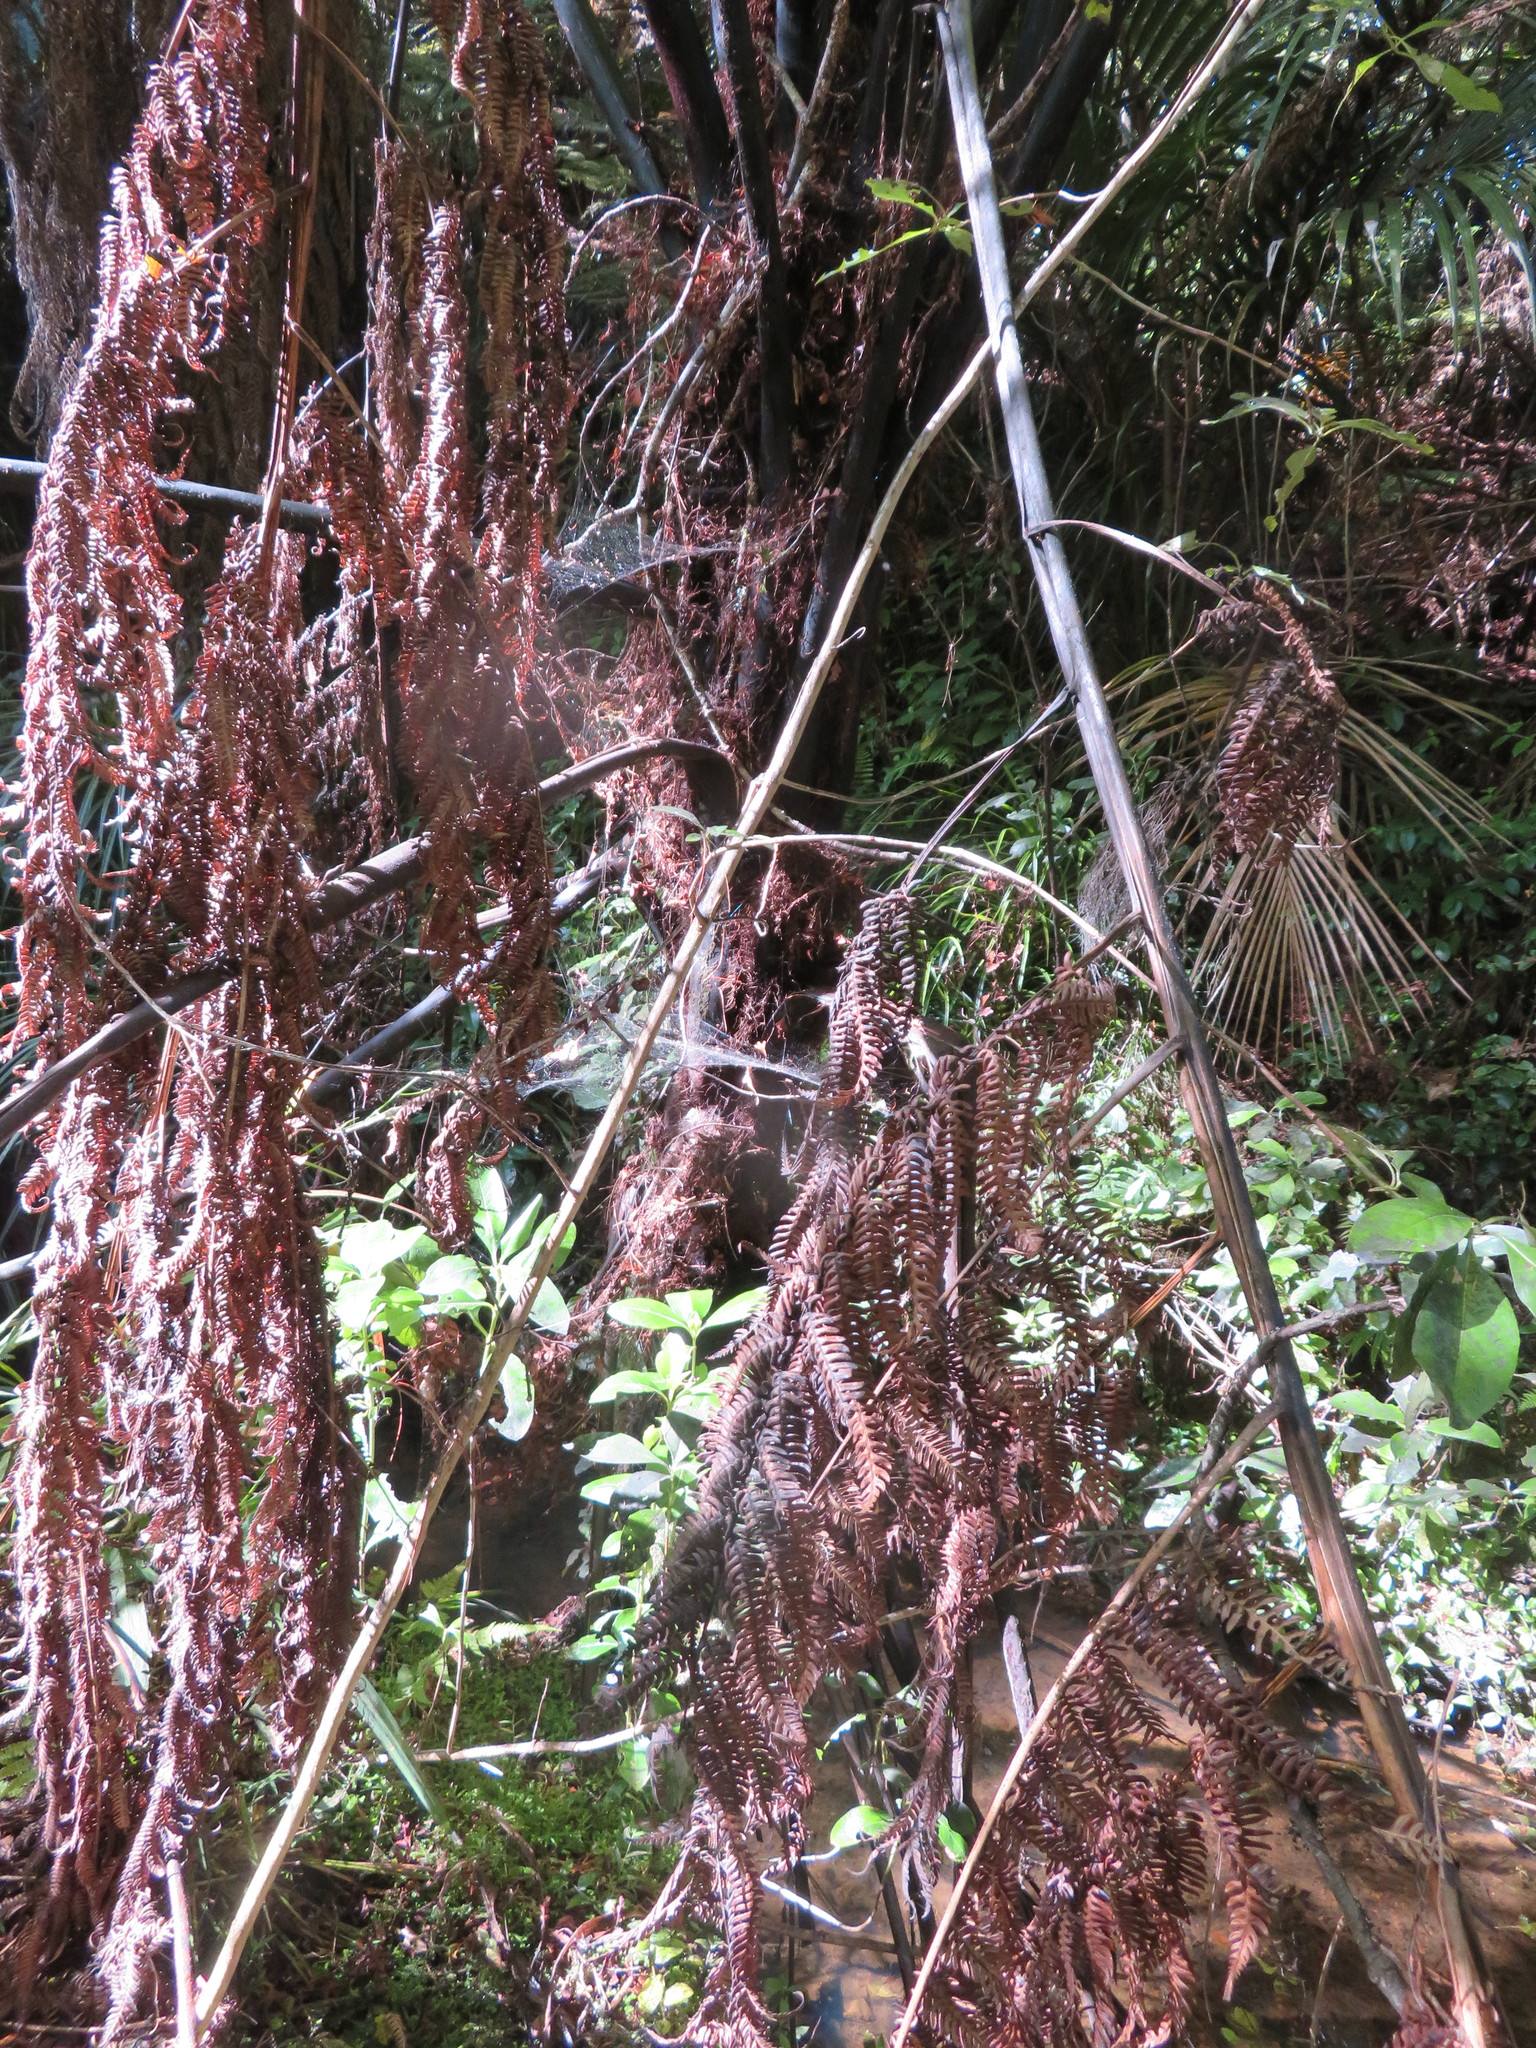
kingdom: Plantae
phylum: Tracheophyta
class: Polypodiopsida
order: Cyatheales
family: Cyatheaceae
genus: Sphaeropteris
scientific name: Sphaeropteris medullaris
